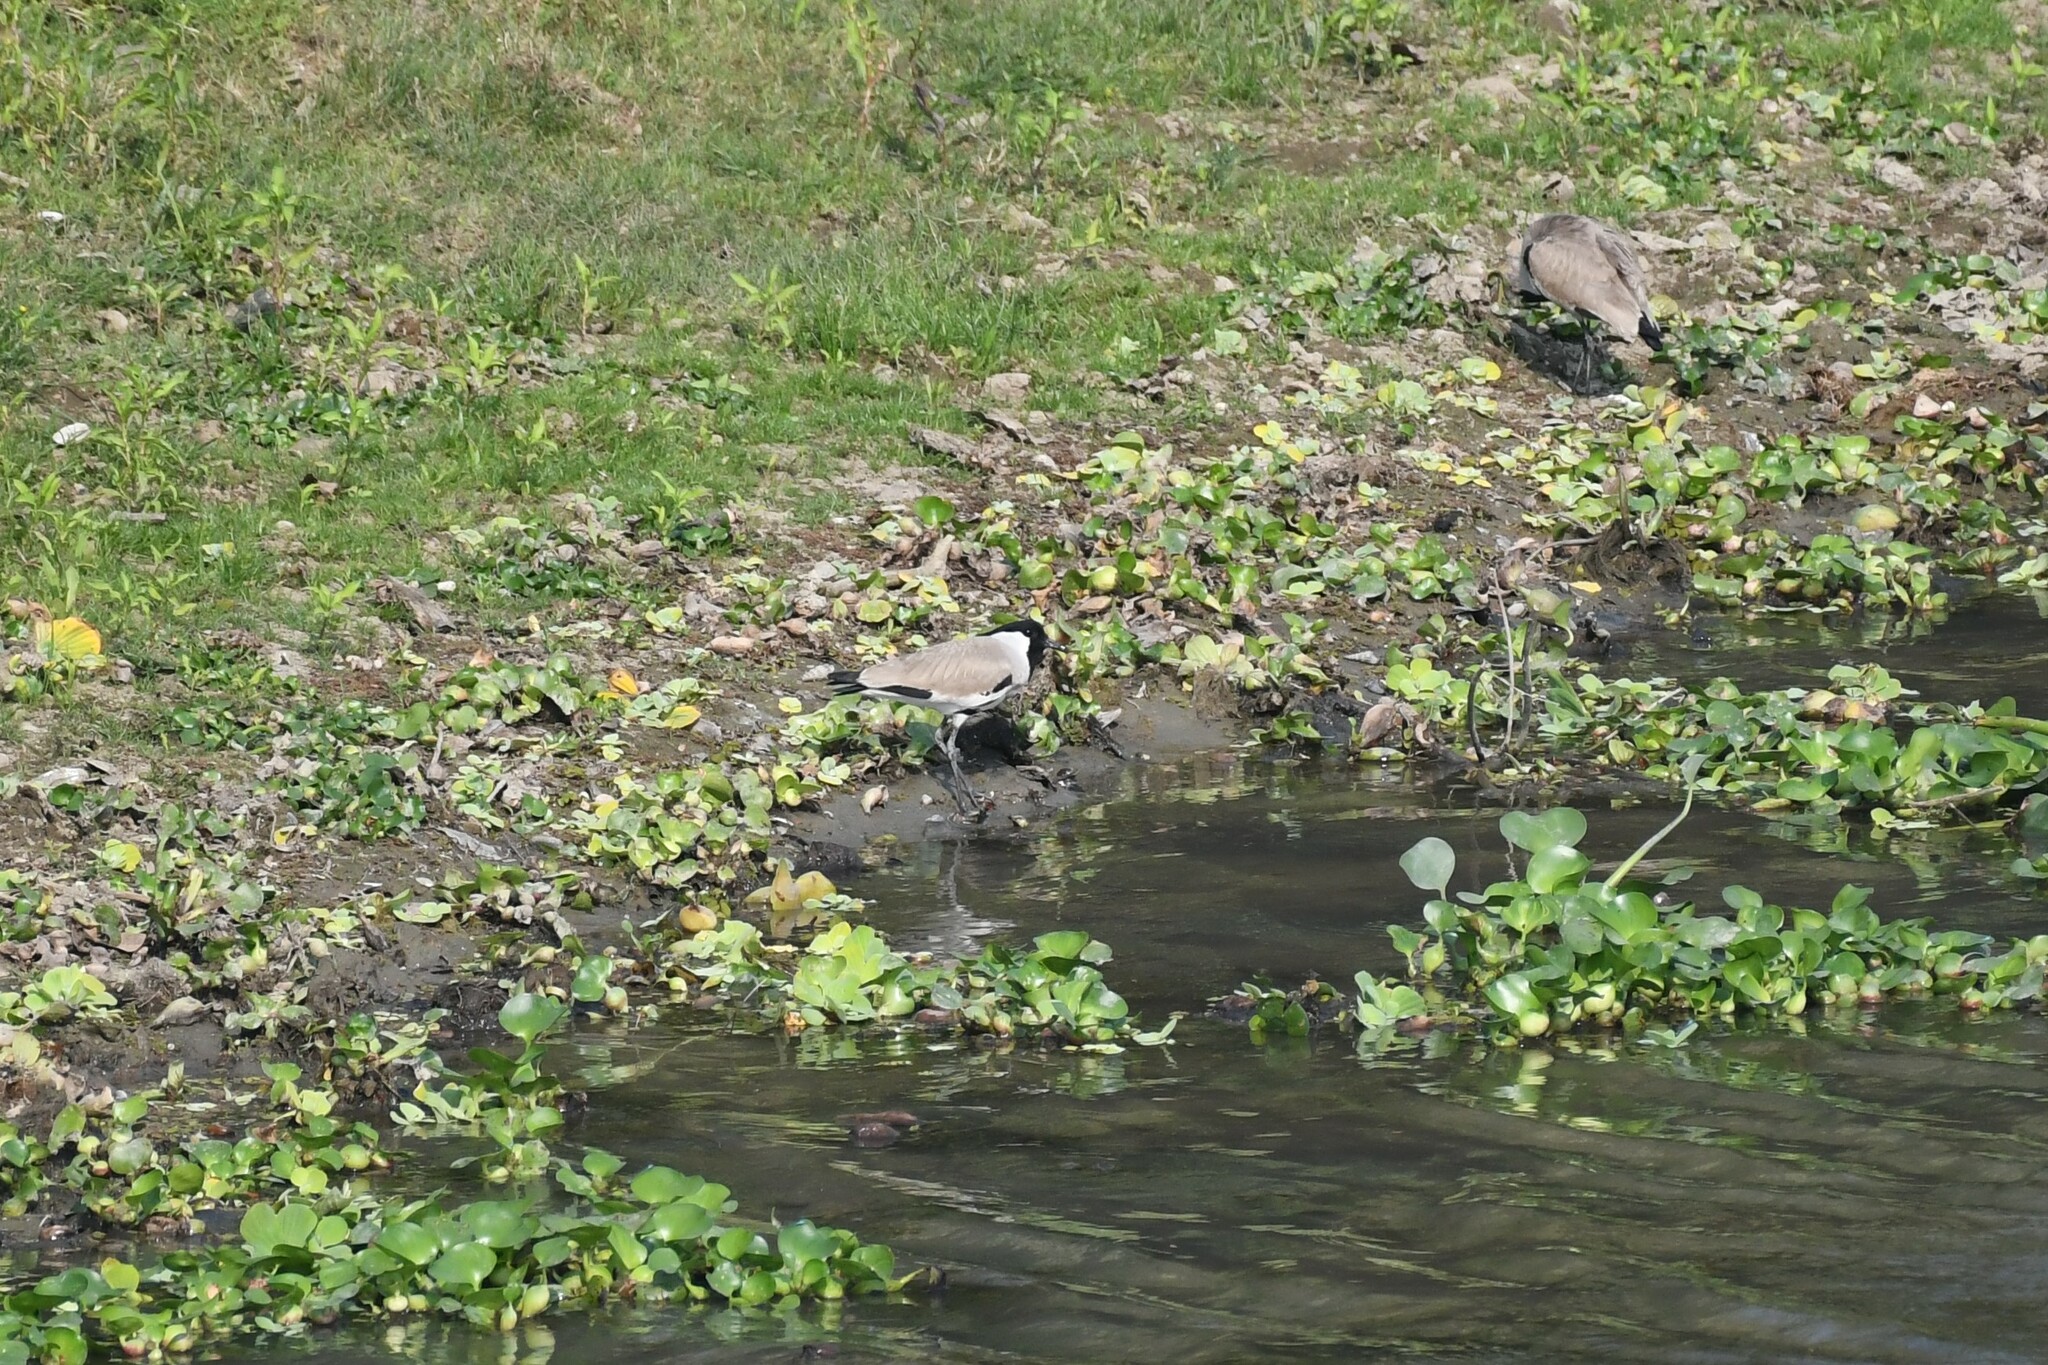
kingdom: Animalia
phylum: Chordata
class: Aves
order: Charadriiformes
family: Charadriidae
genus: Vanellus
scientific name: Vanellus duvaucelii
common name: River lapwing
